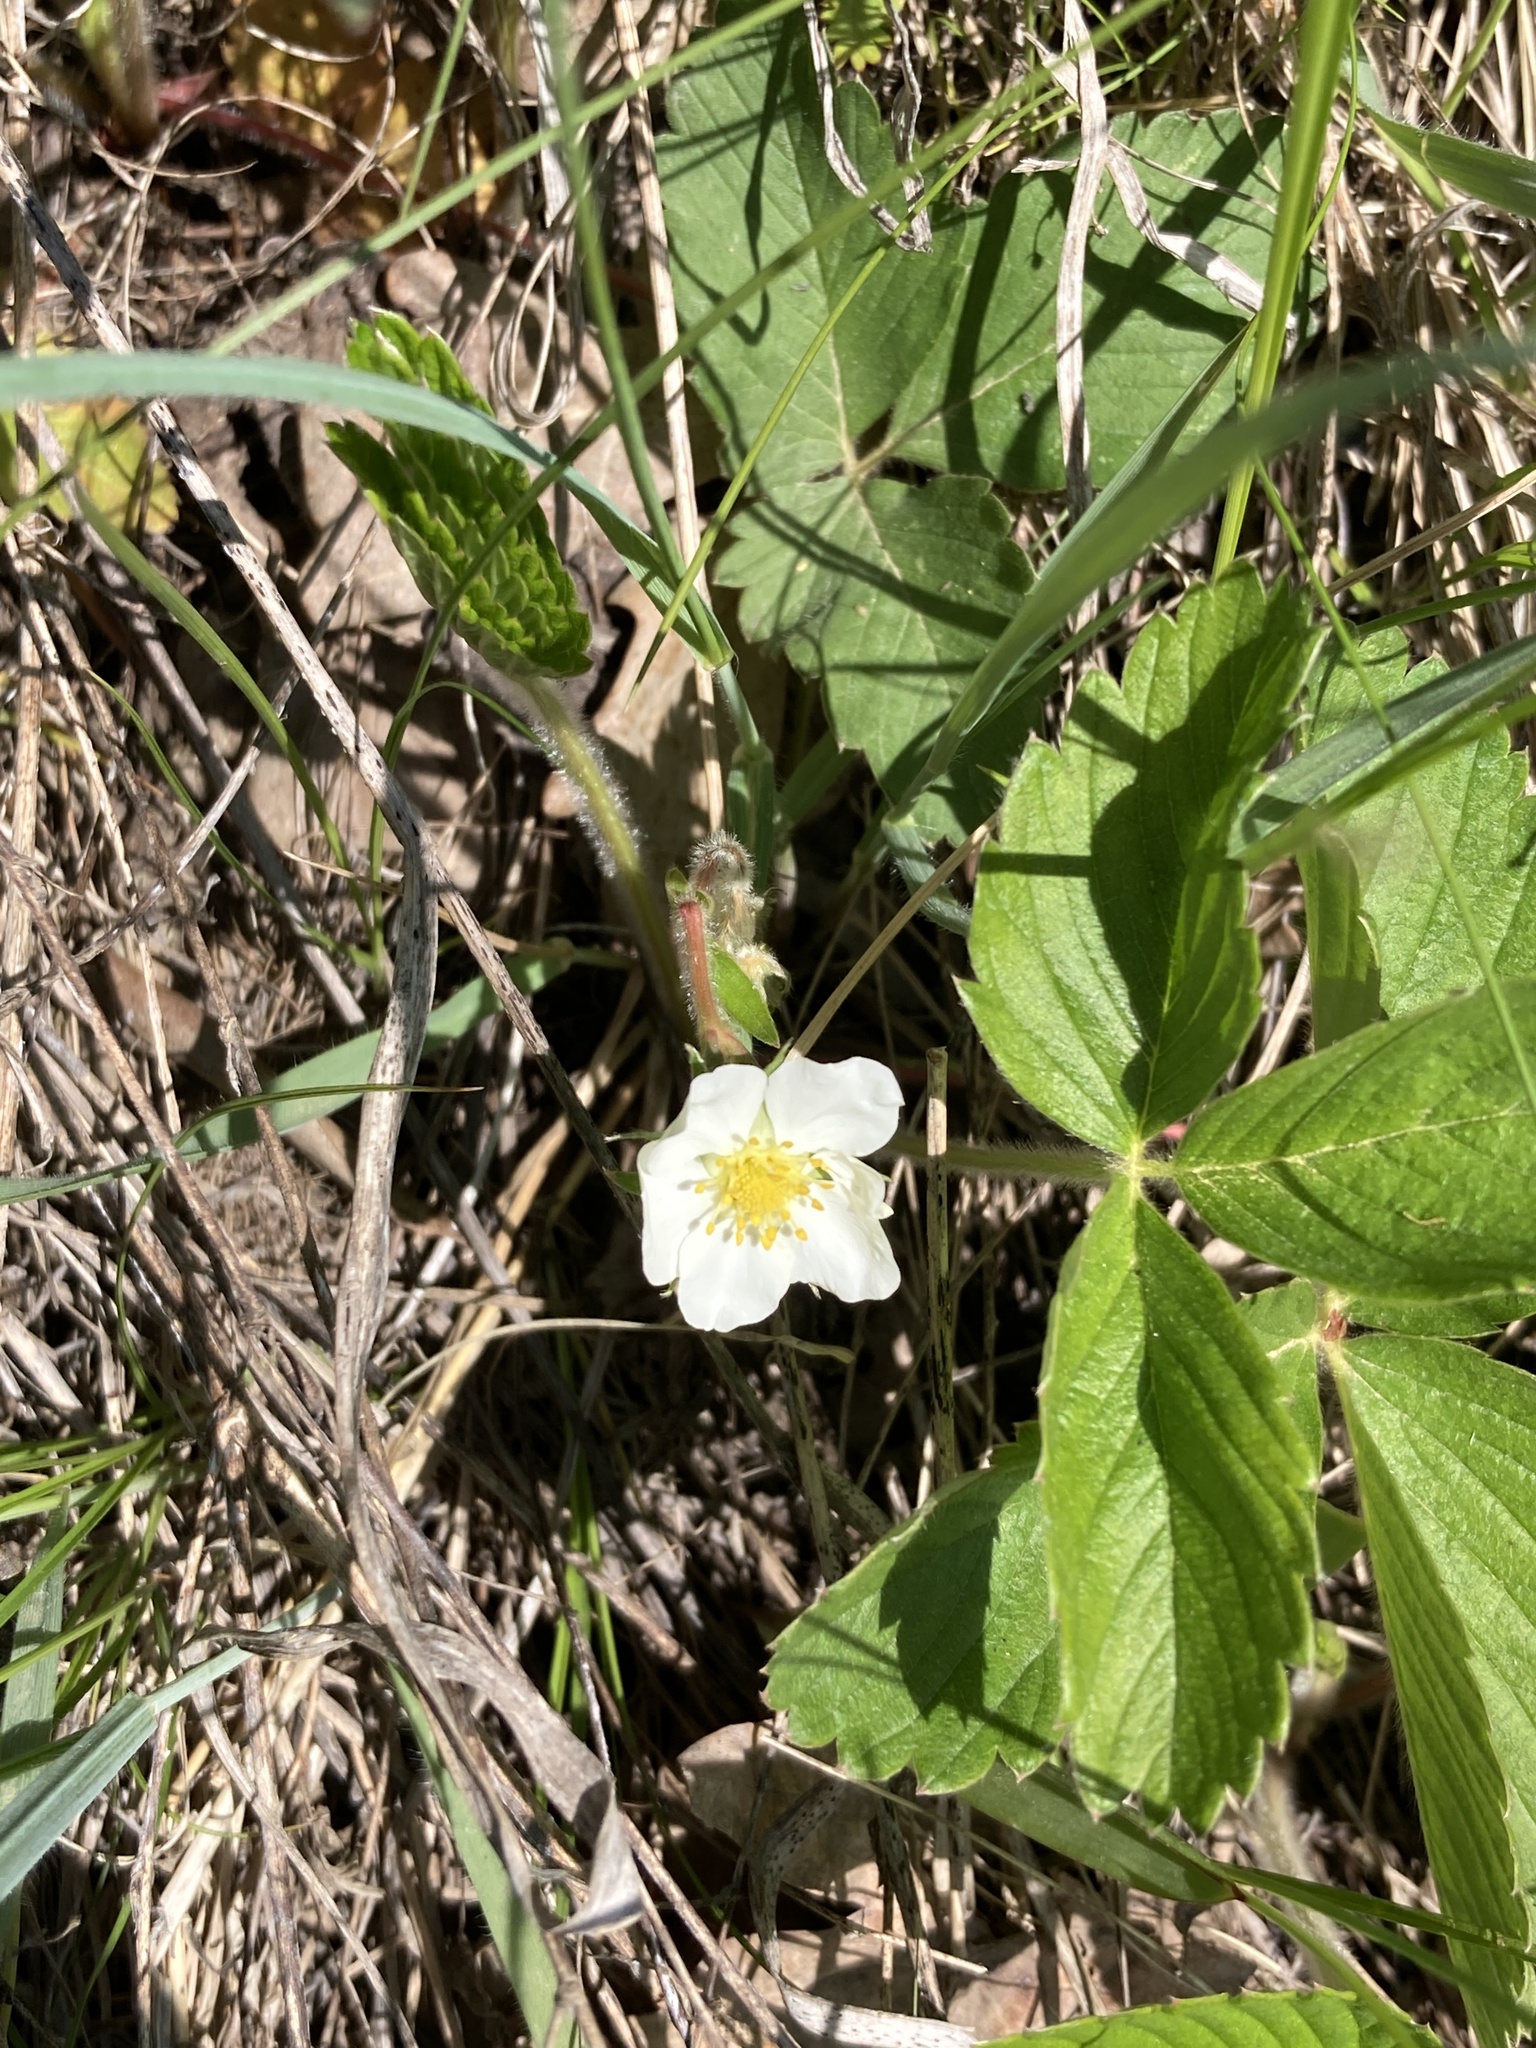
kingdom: Plantae
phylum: Tracheophyta
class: Magnoliopsida
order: Rosales
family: Rosaceae
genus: Fragaria
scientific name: Fragaria viridis
